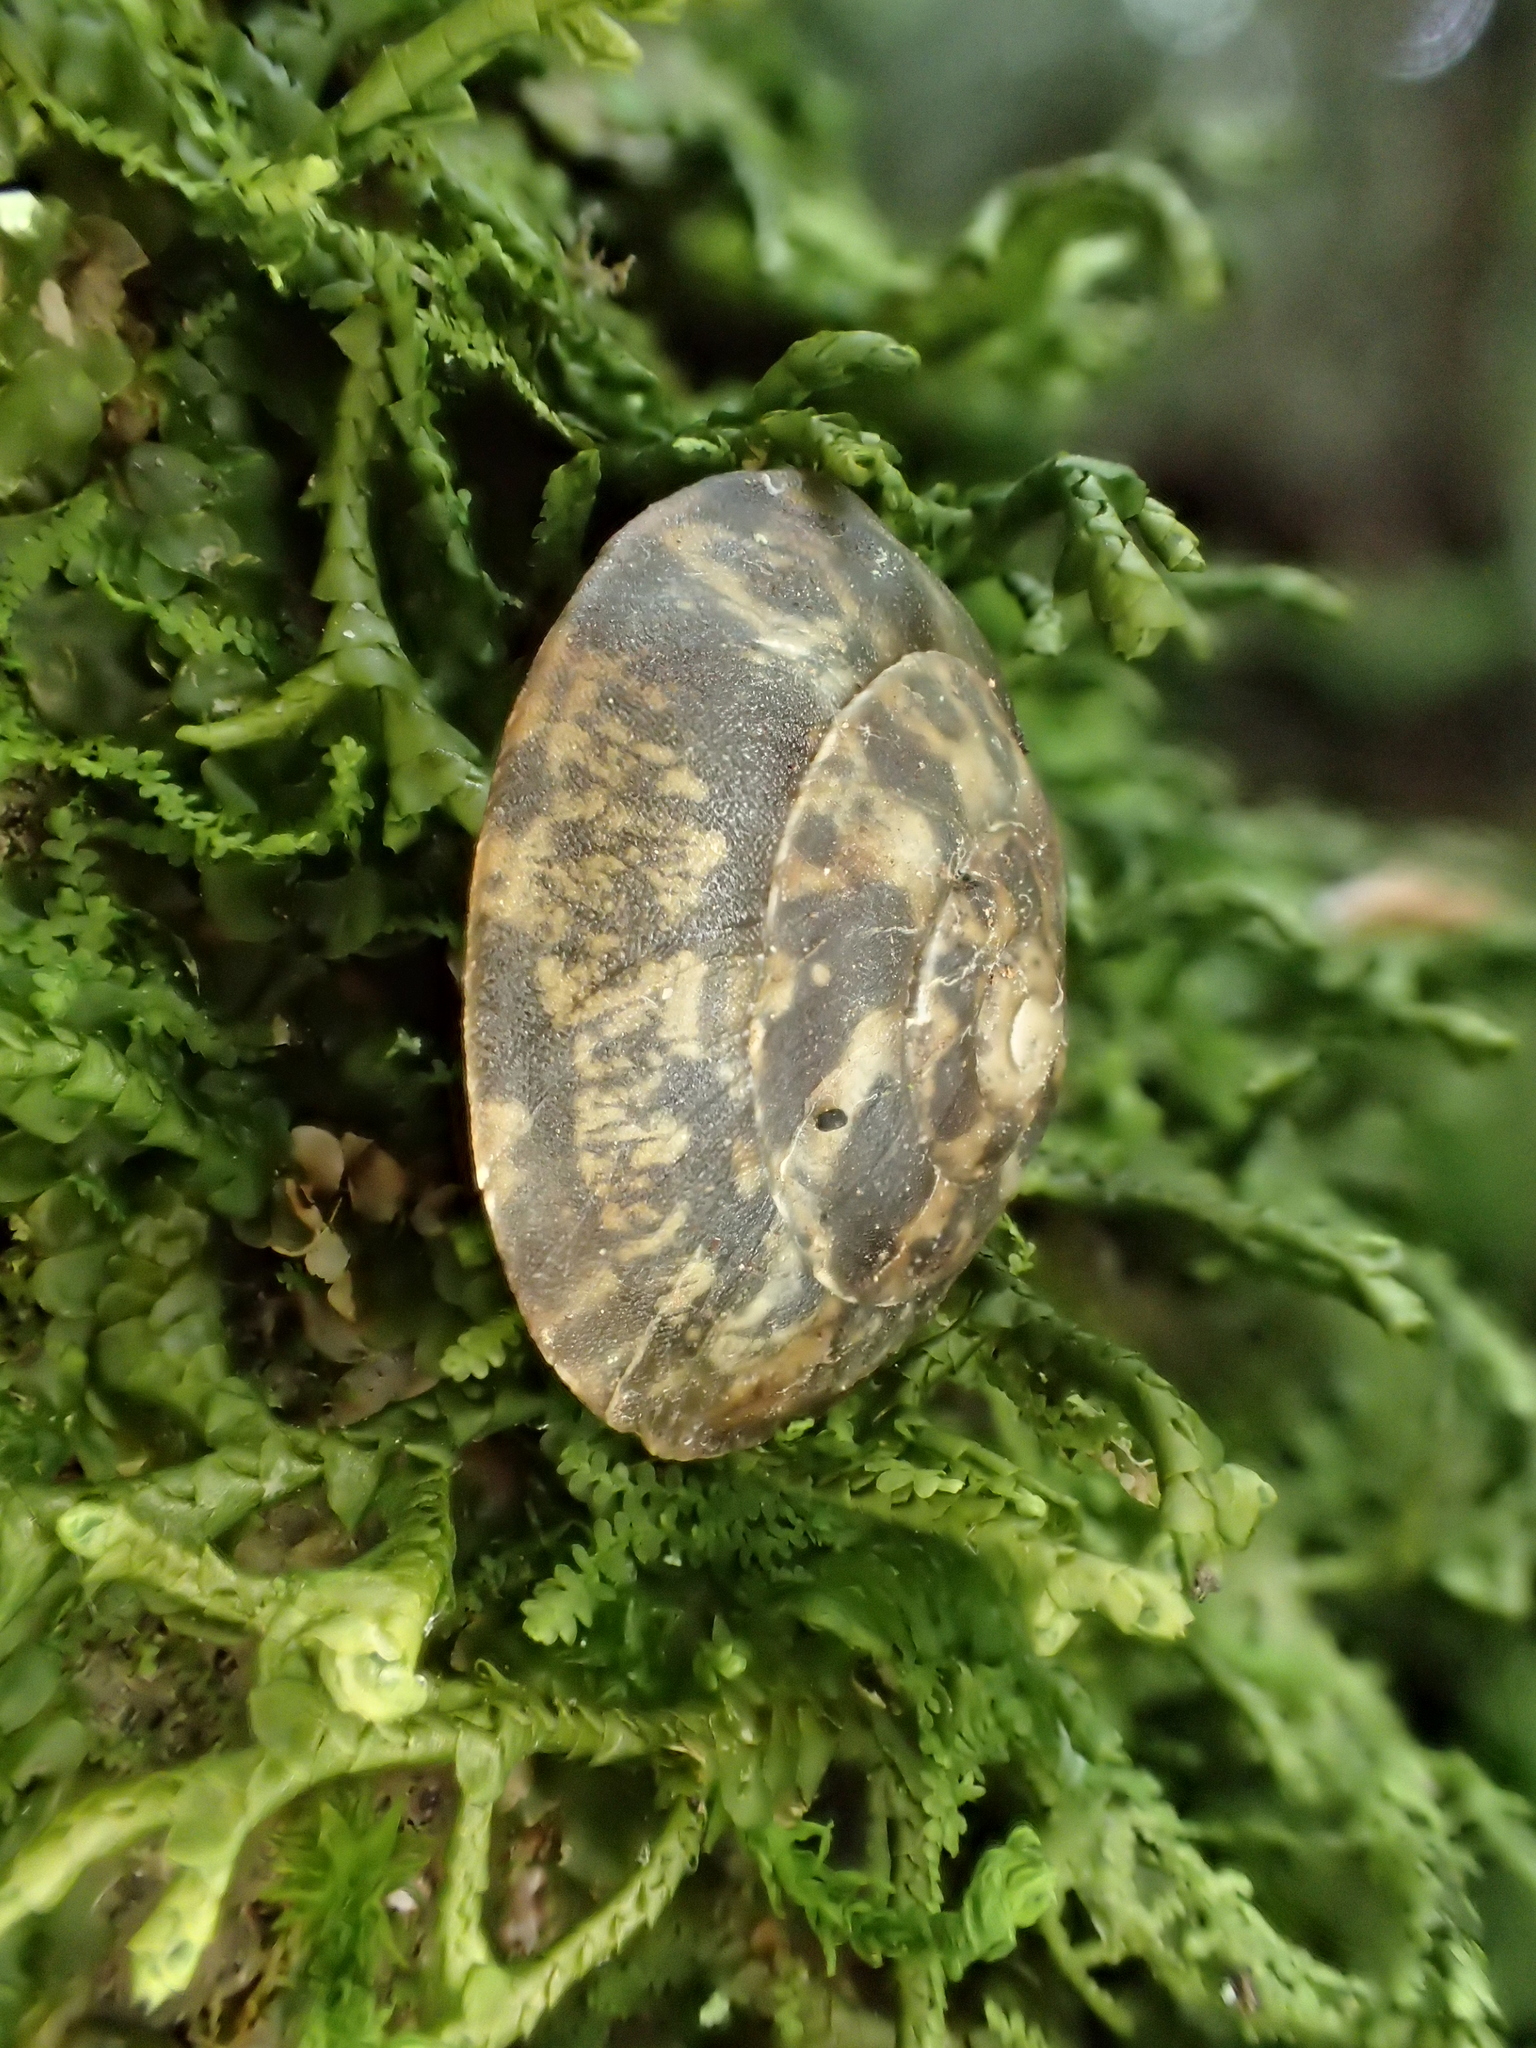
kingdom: Animalia
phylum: Mollusca
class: Gastropoda
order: Stylommatophora
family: Helicidae
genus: Helicigona
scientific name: Helicigona lapicida
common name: Lapidary snail
